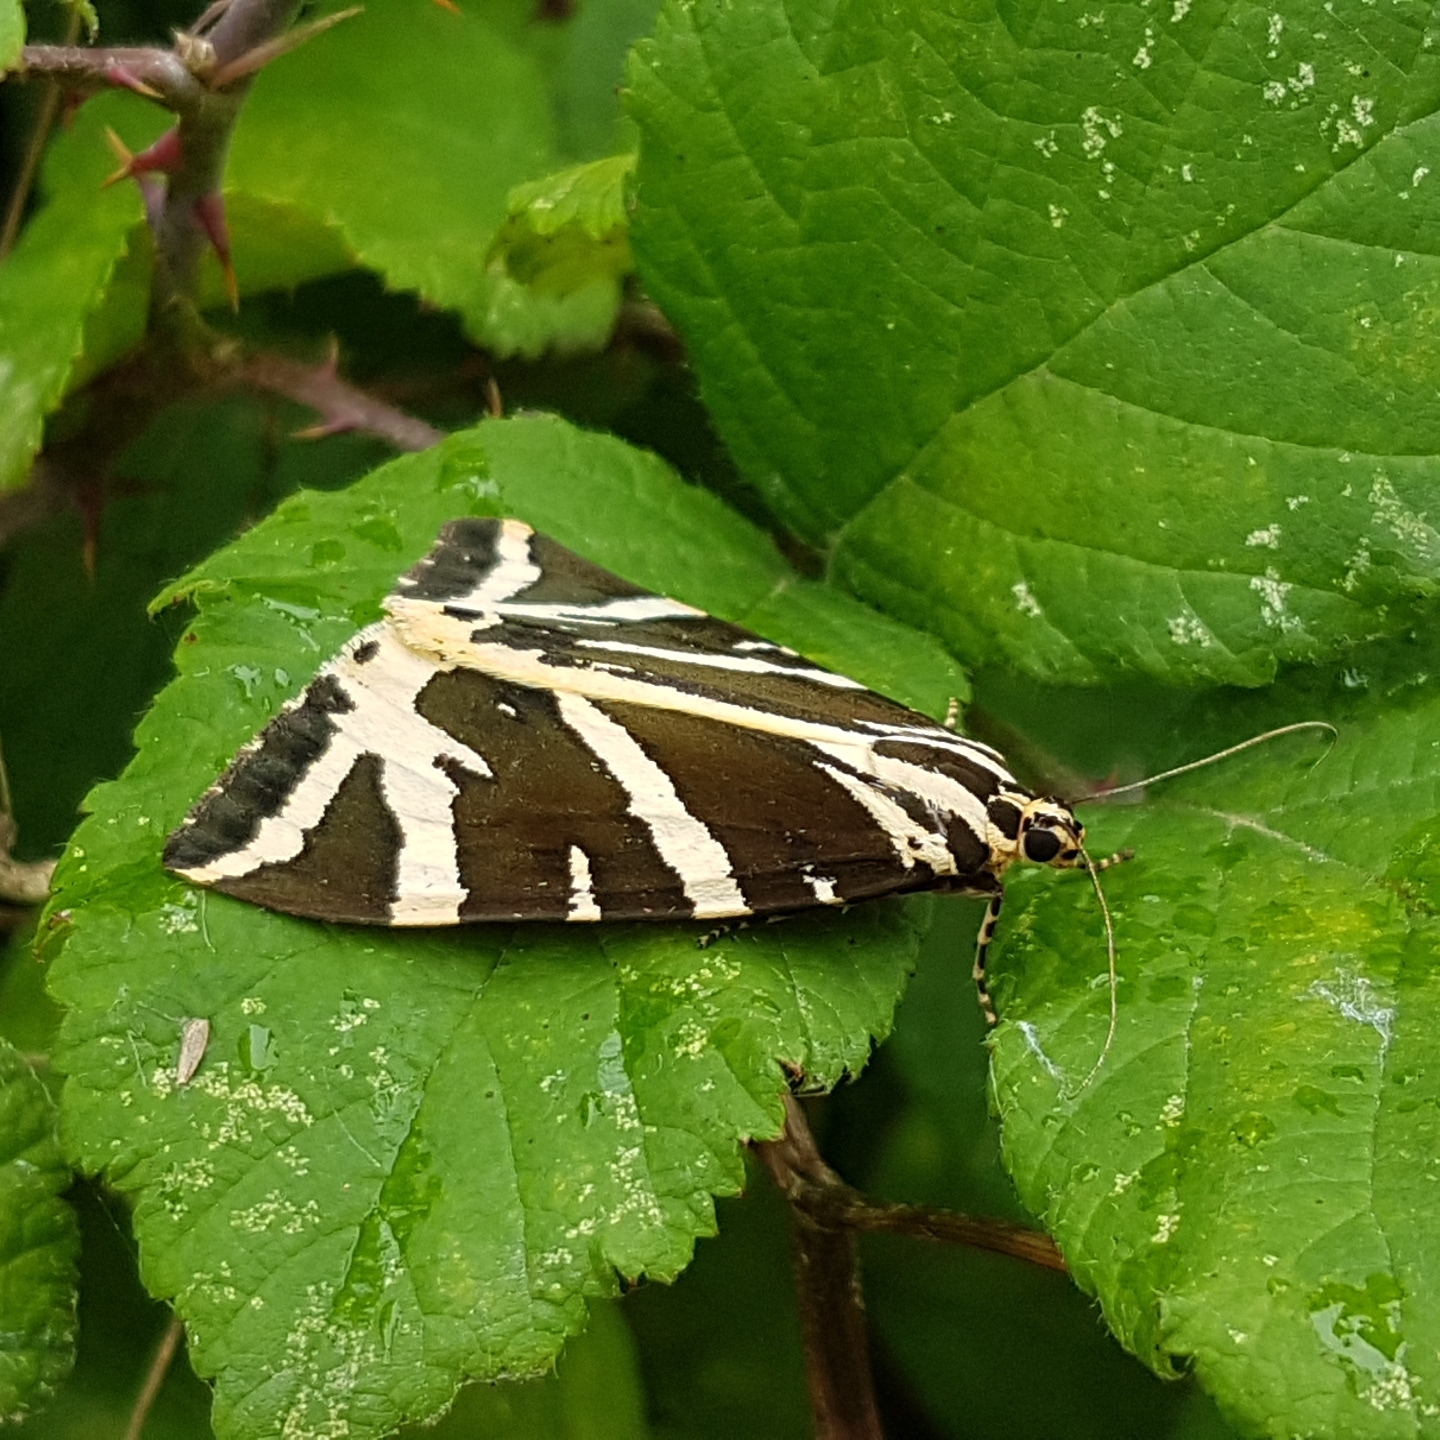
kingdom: Animalia
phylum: Arthropoda
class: Insecta
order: Lepidoptera
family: Erebidae
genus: Euplagia
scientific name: Euplagia quadripunctaria
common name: Jersey tiger
